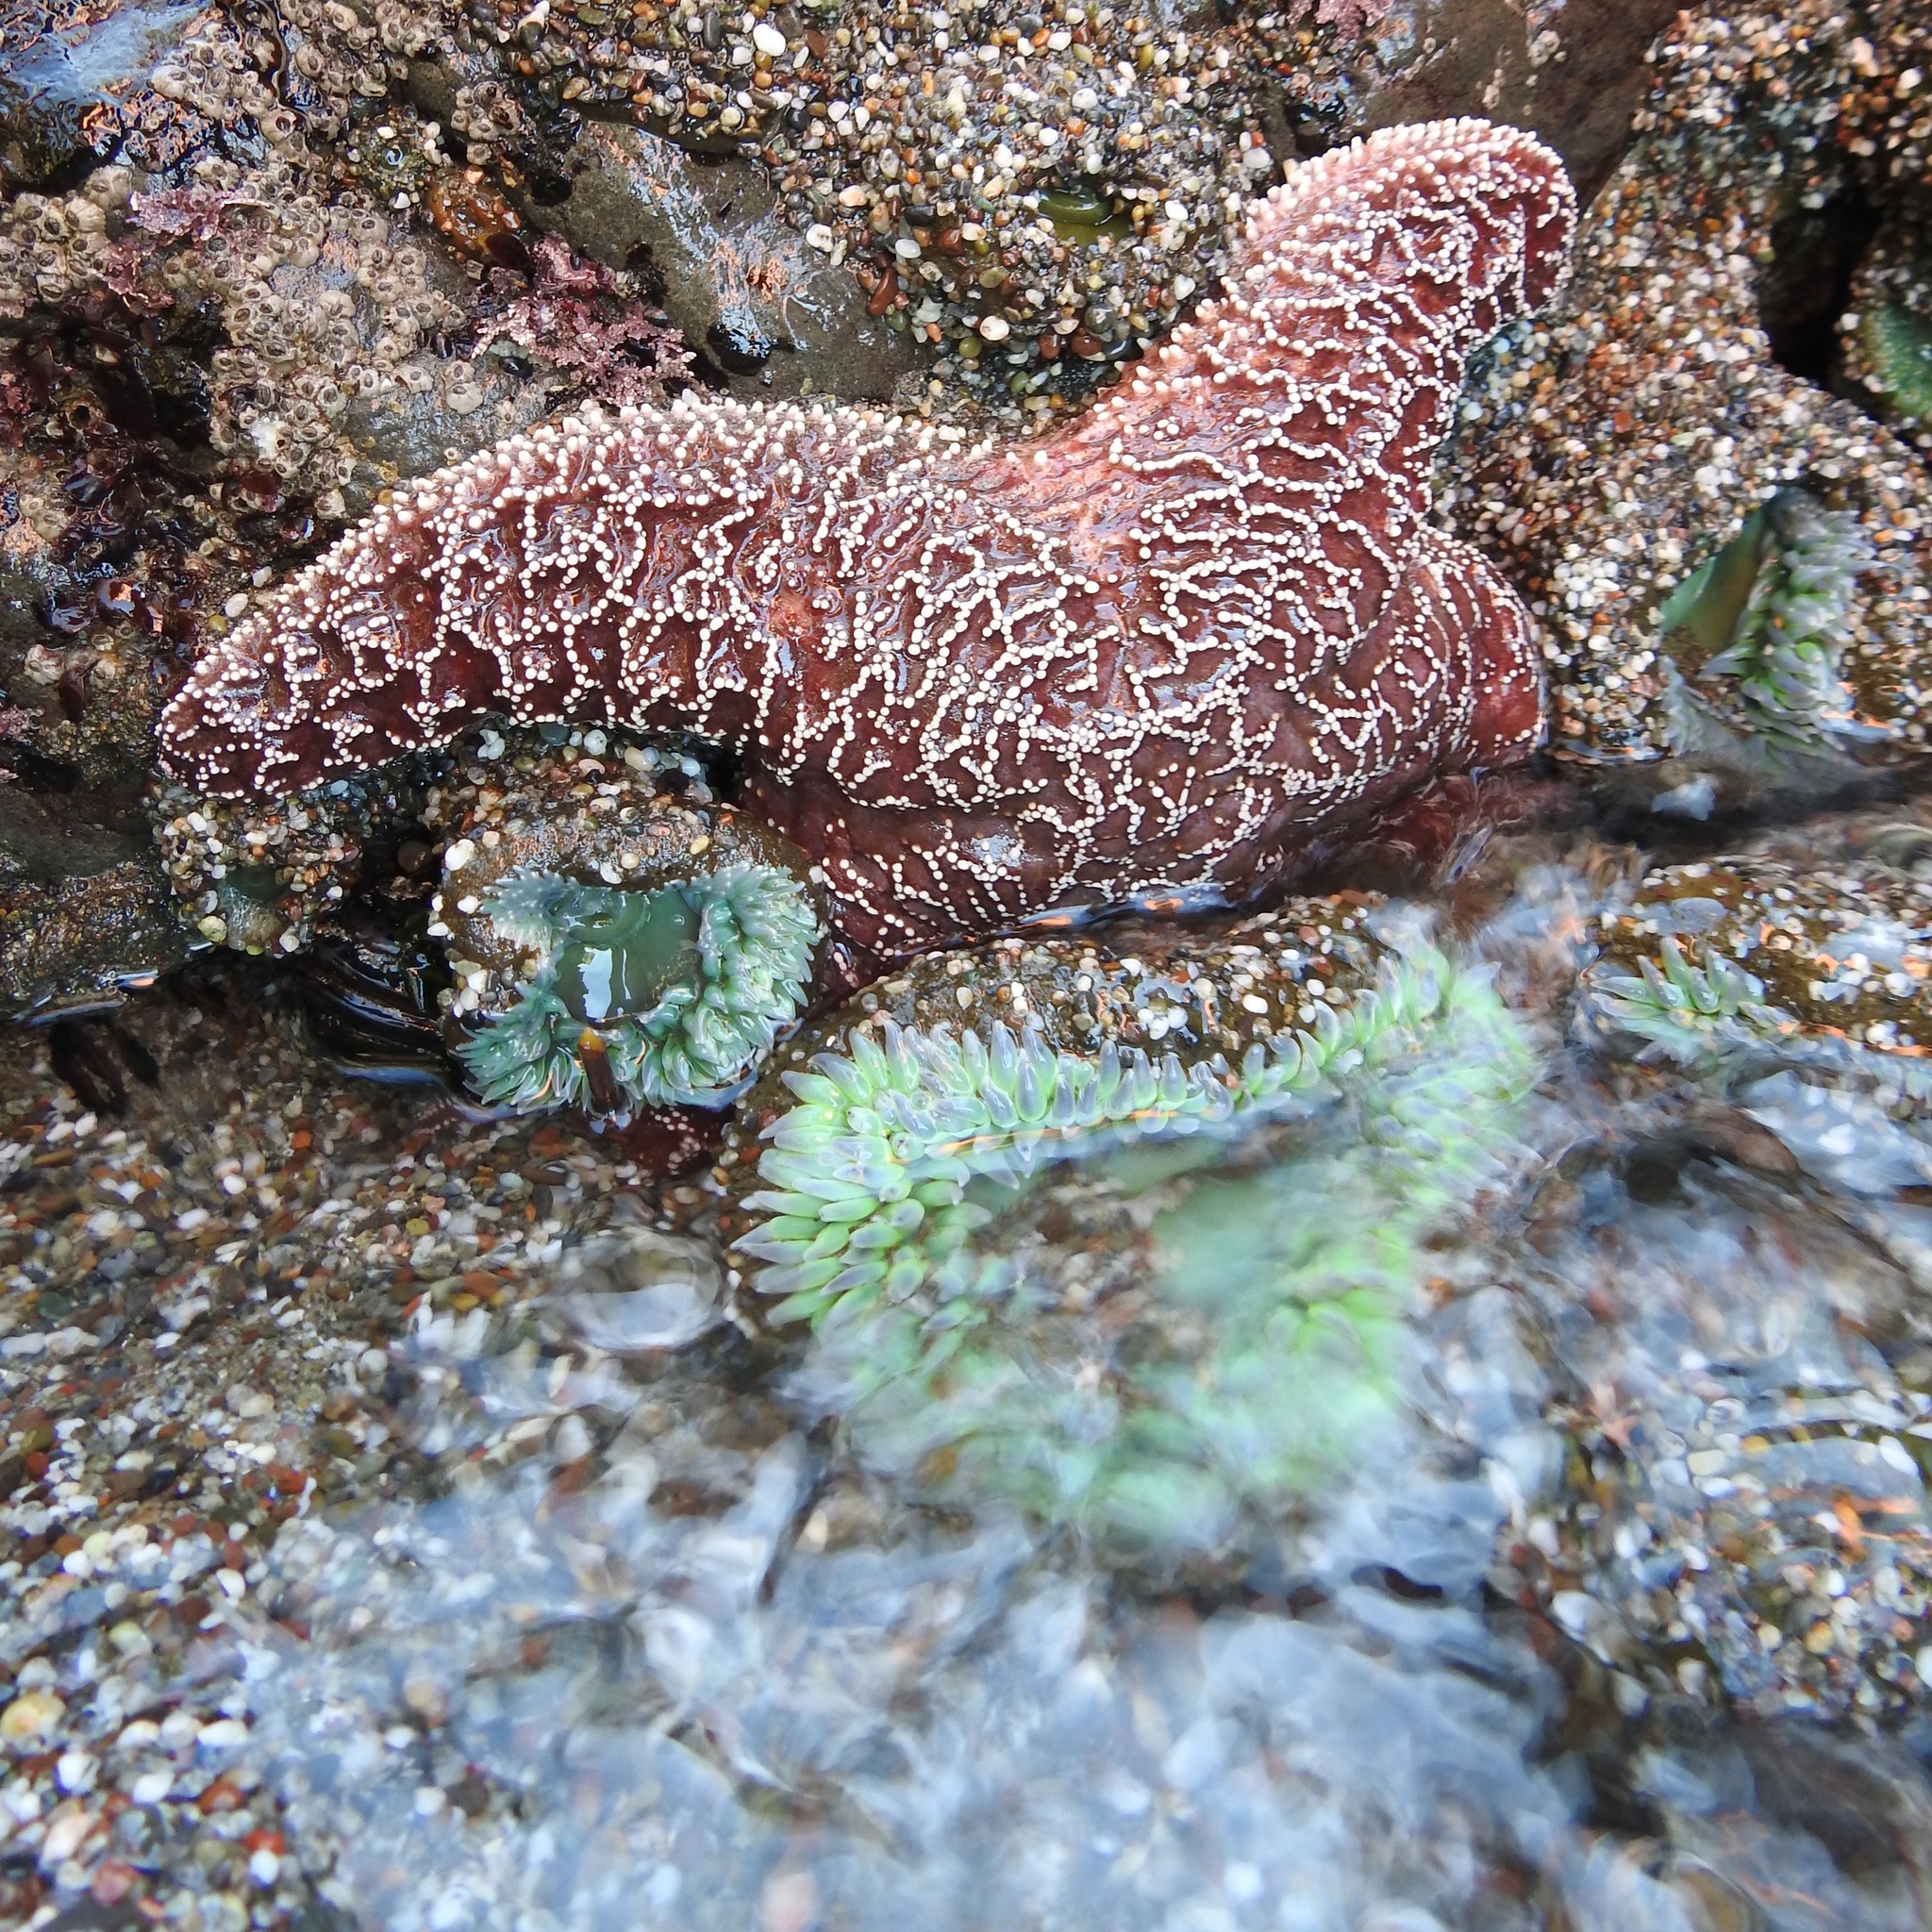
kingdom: Animalia
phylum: Cnidaria
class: Anthozoa
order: Actiniaria
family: Actiniidae
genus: Anthopleura
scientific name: Anthopleura xanthogrammica
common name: Giant green anemone
